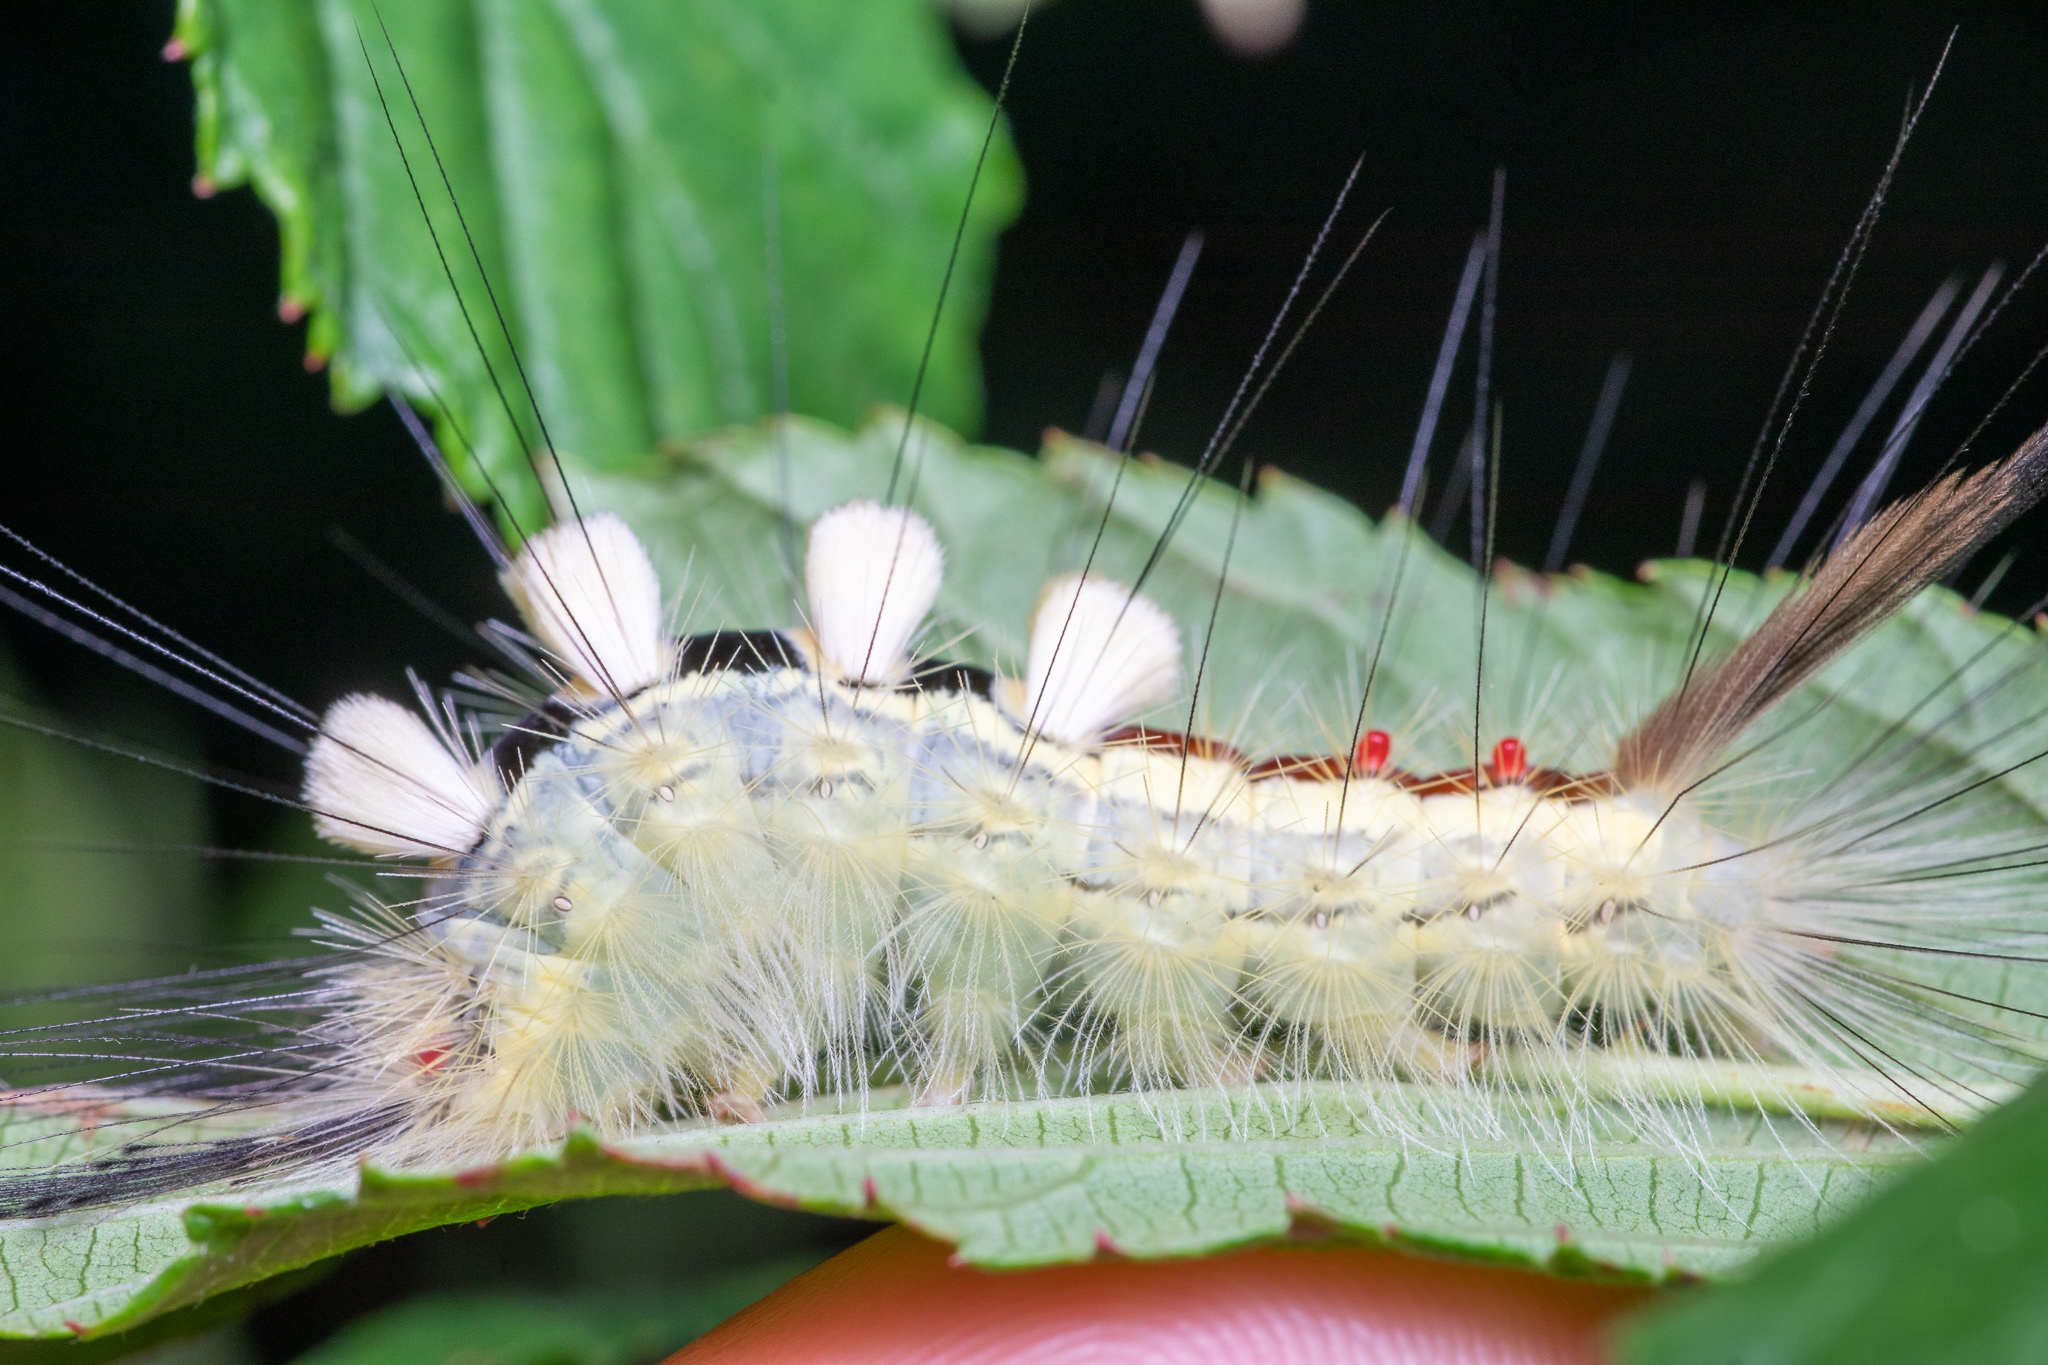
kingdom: Animalia
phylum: Arthropoda
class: Insecta
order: Lepidoptera
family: Erebidae
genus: Orgyia
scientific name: Orgyia leucostigma
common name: White-marked tussock moth
